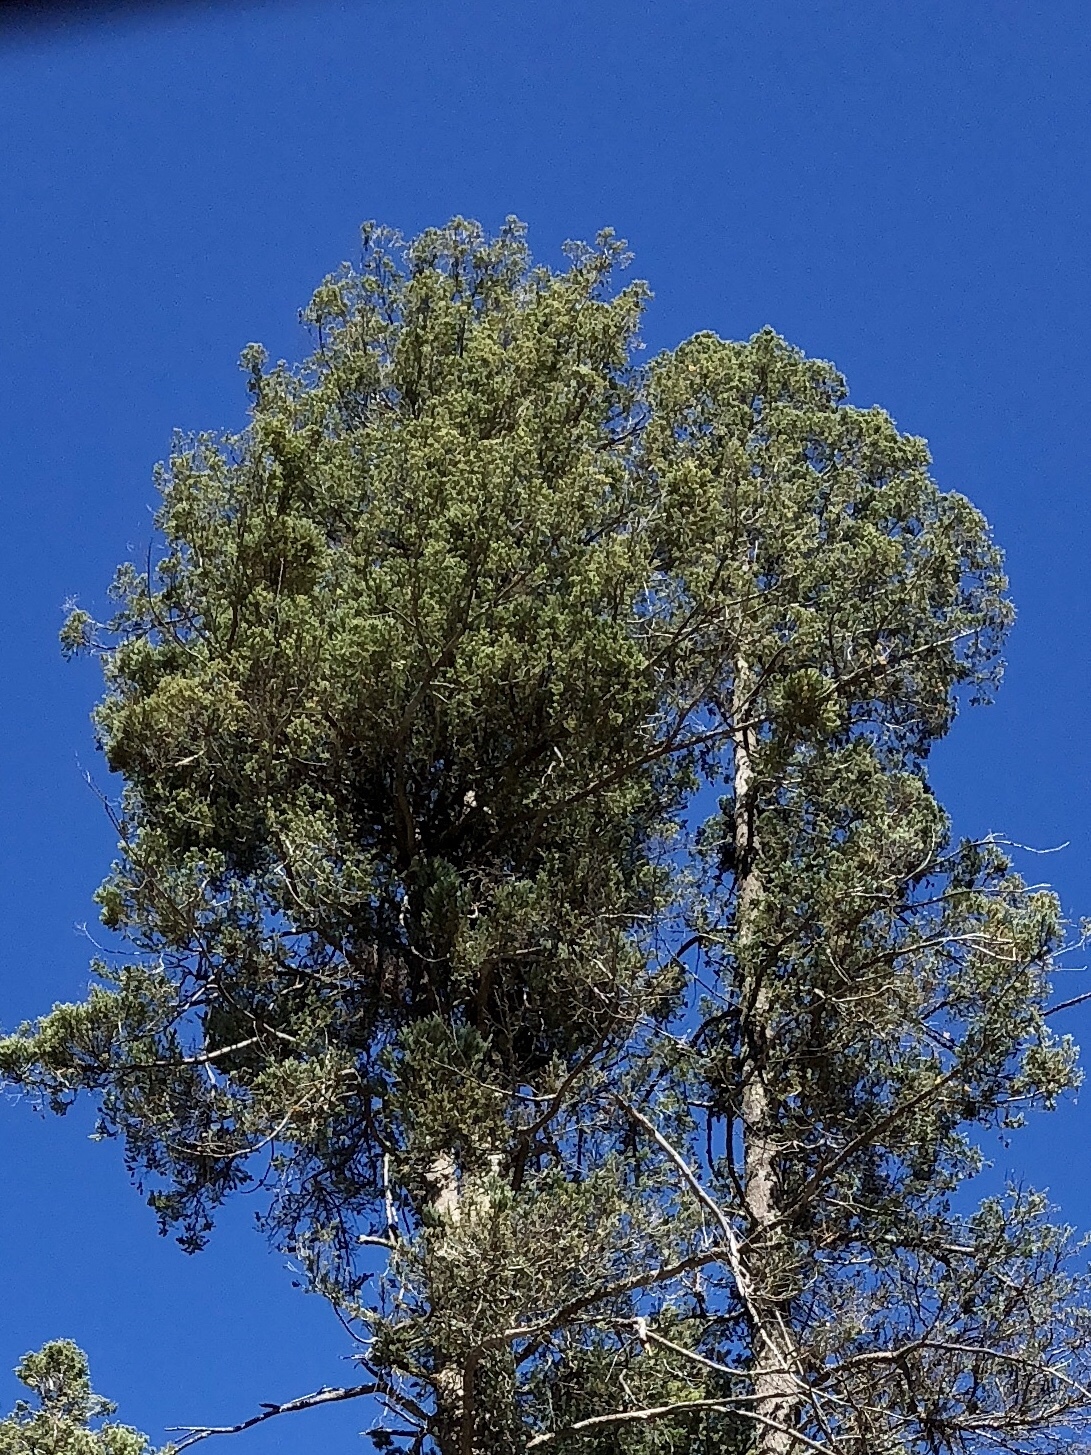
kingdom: Plantae
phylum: Tracheophyta
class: Pinopsida
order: Pinales
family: Pinaceae
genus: Abies
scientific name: Abies concolor
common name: Colorado fir
